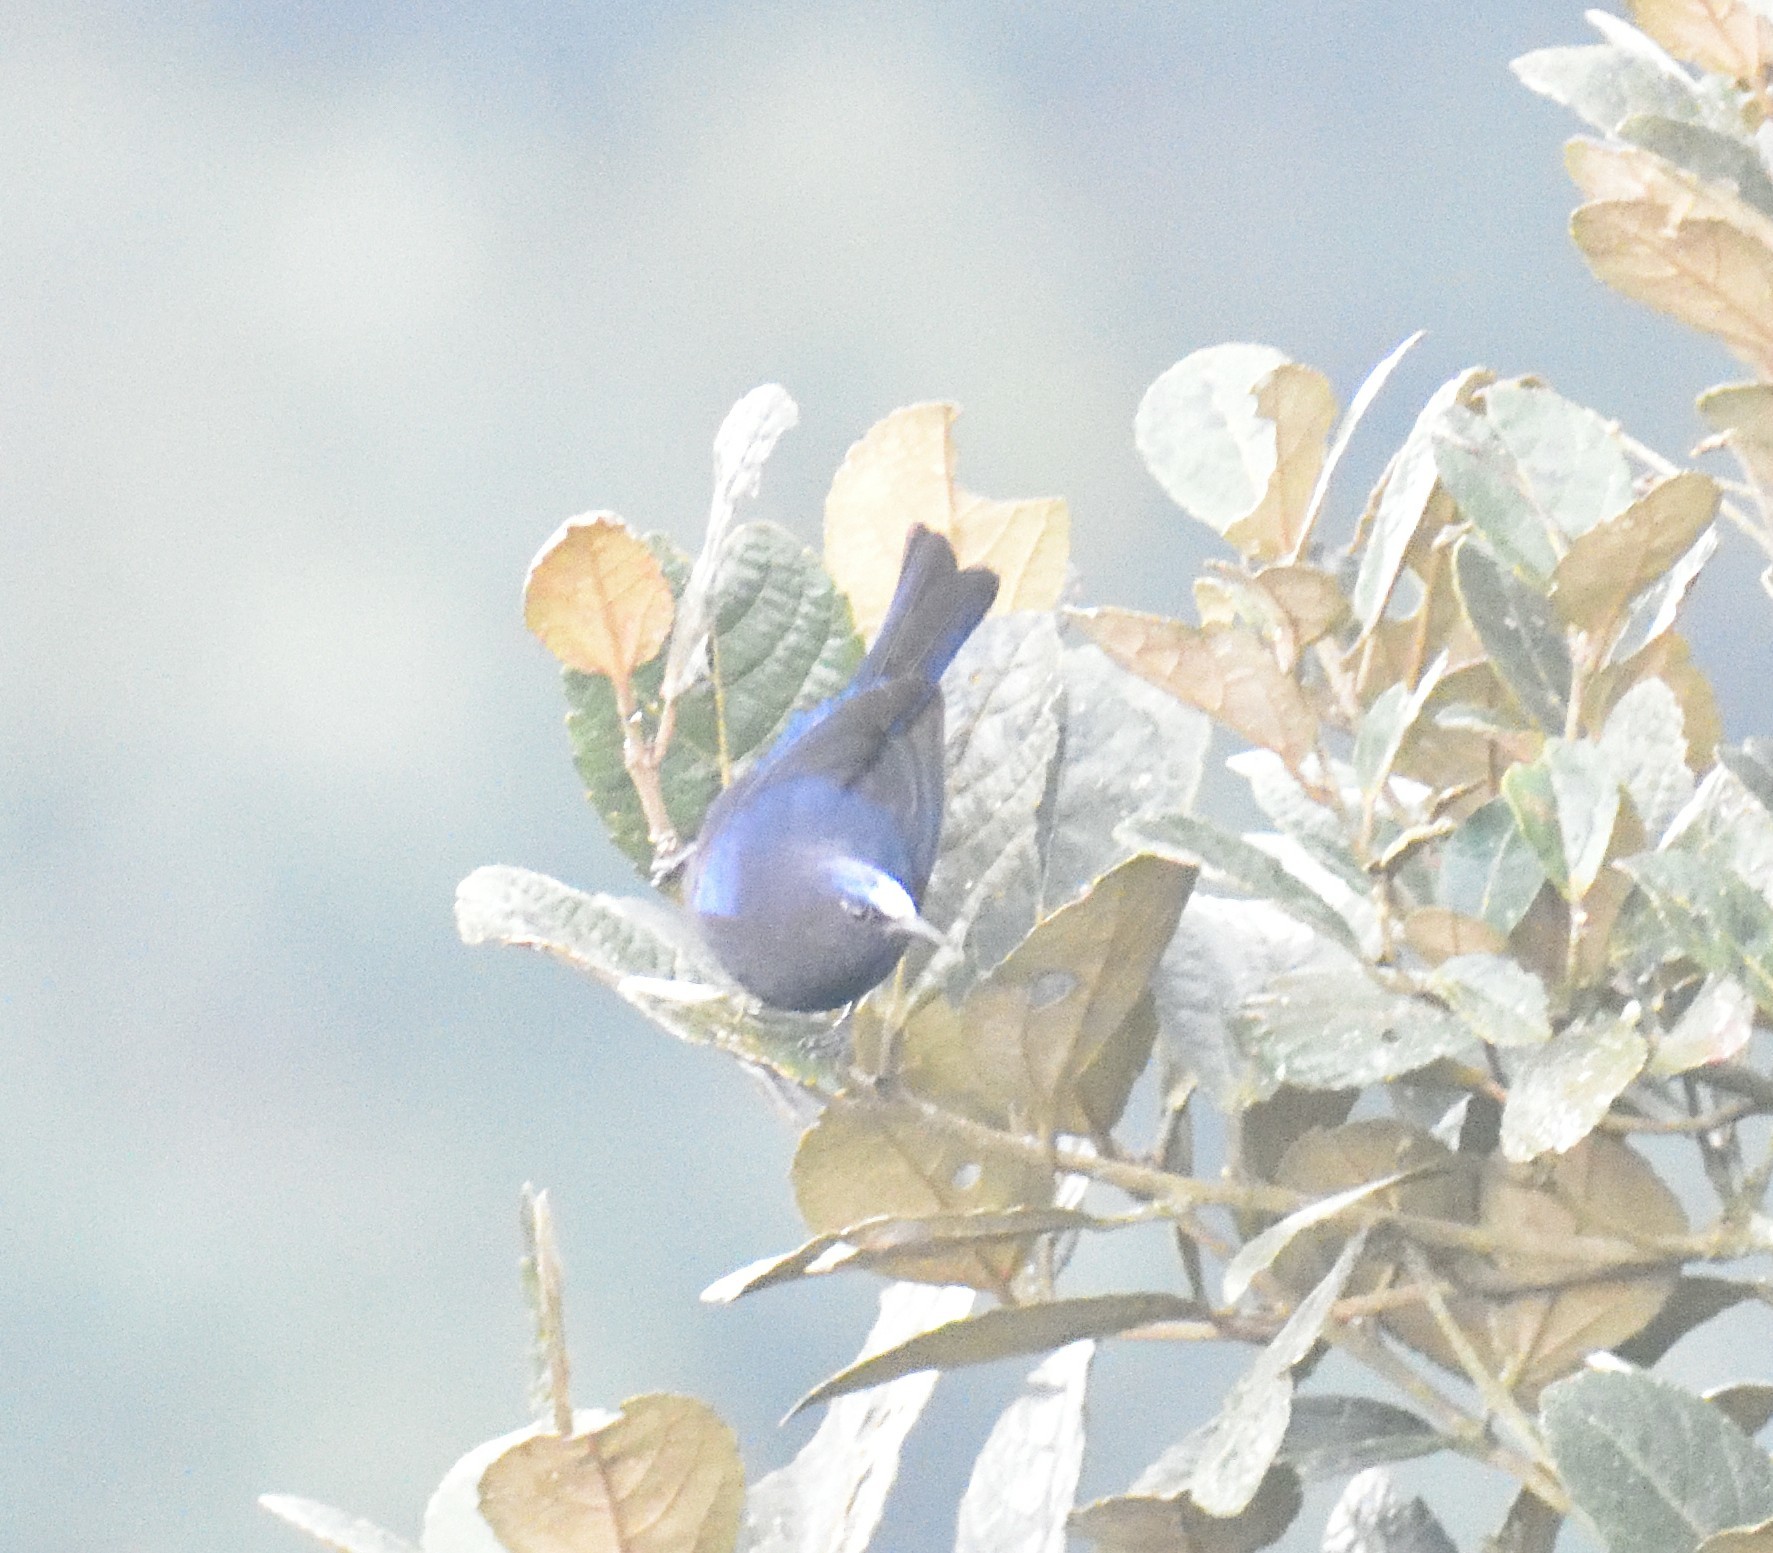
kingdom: Animalia
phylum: Chordata
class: Aves
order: Passeriformes
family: Thraupidae
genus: Conirostrum
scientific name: Conirostrum albifrons
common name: Capped conebill
